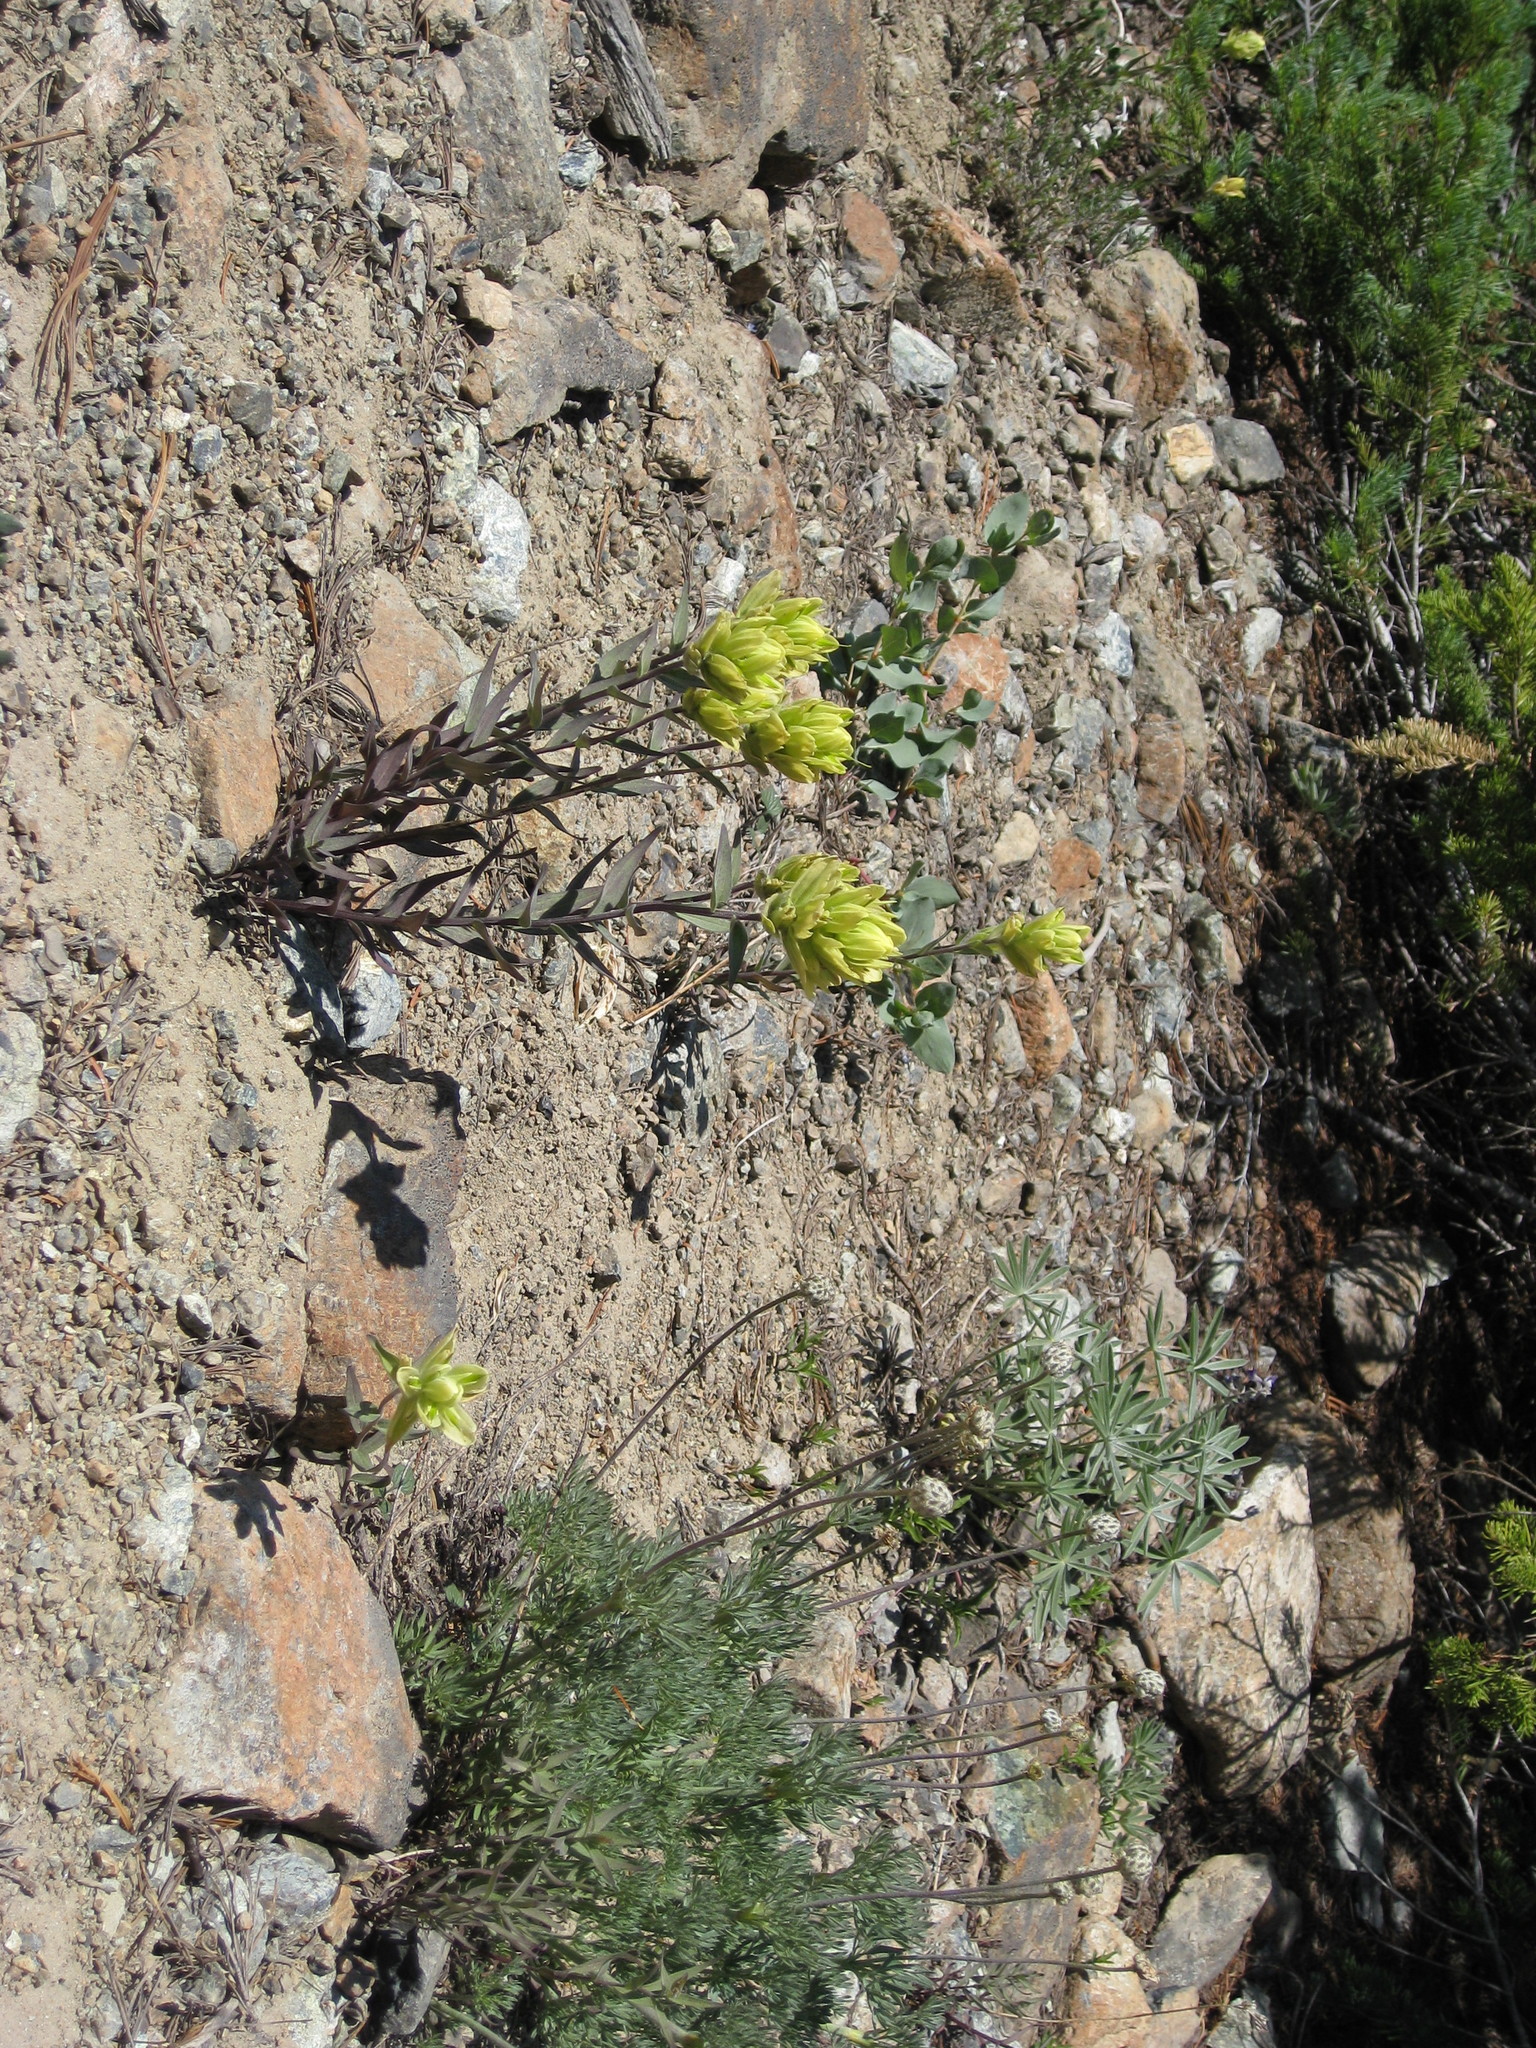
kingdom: Plantae
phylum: Tracheophyta
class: Magnoliopsida
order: Lamiales
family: Orobanchaceae
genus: Castilleja
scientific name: Castilleja elmeri
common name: Elmer's paintbrush
